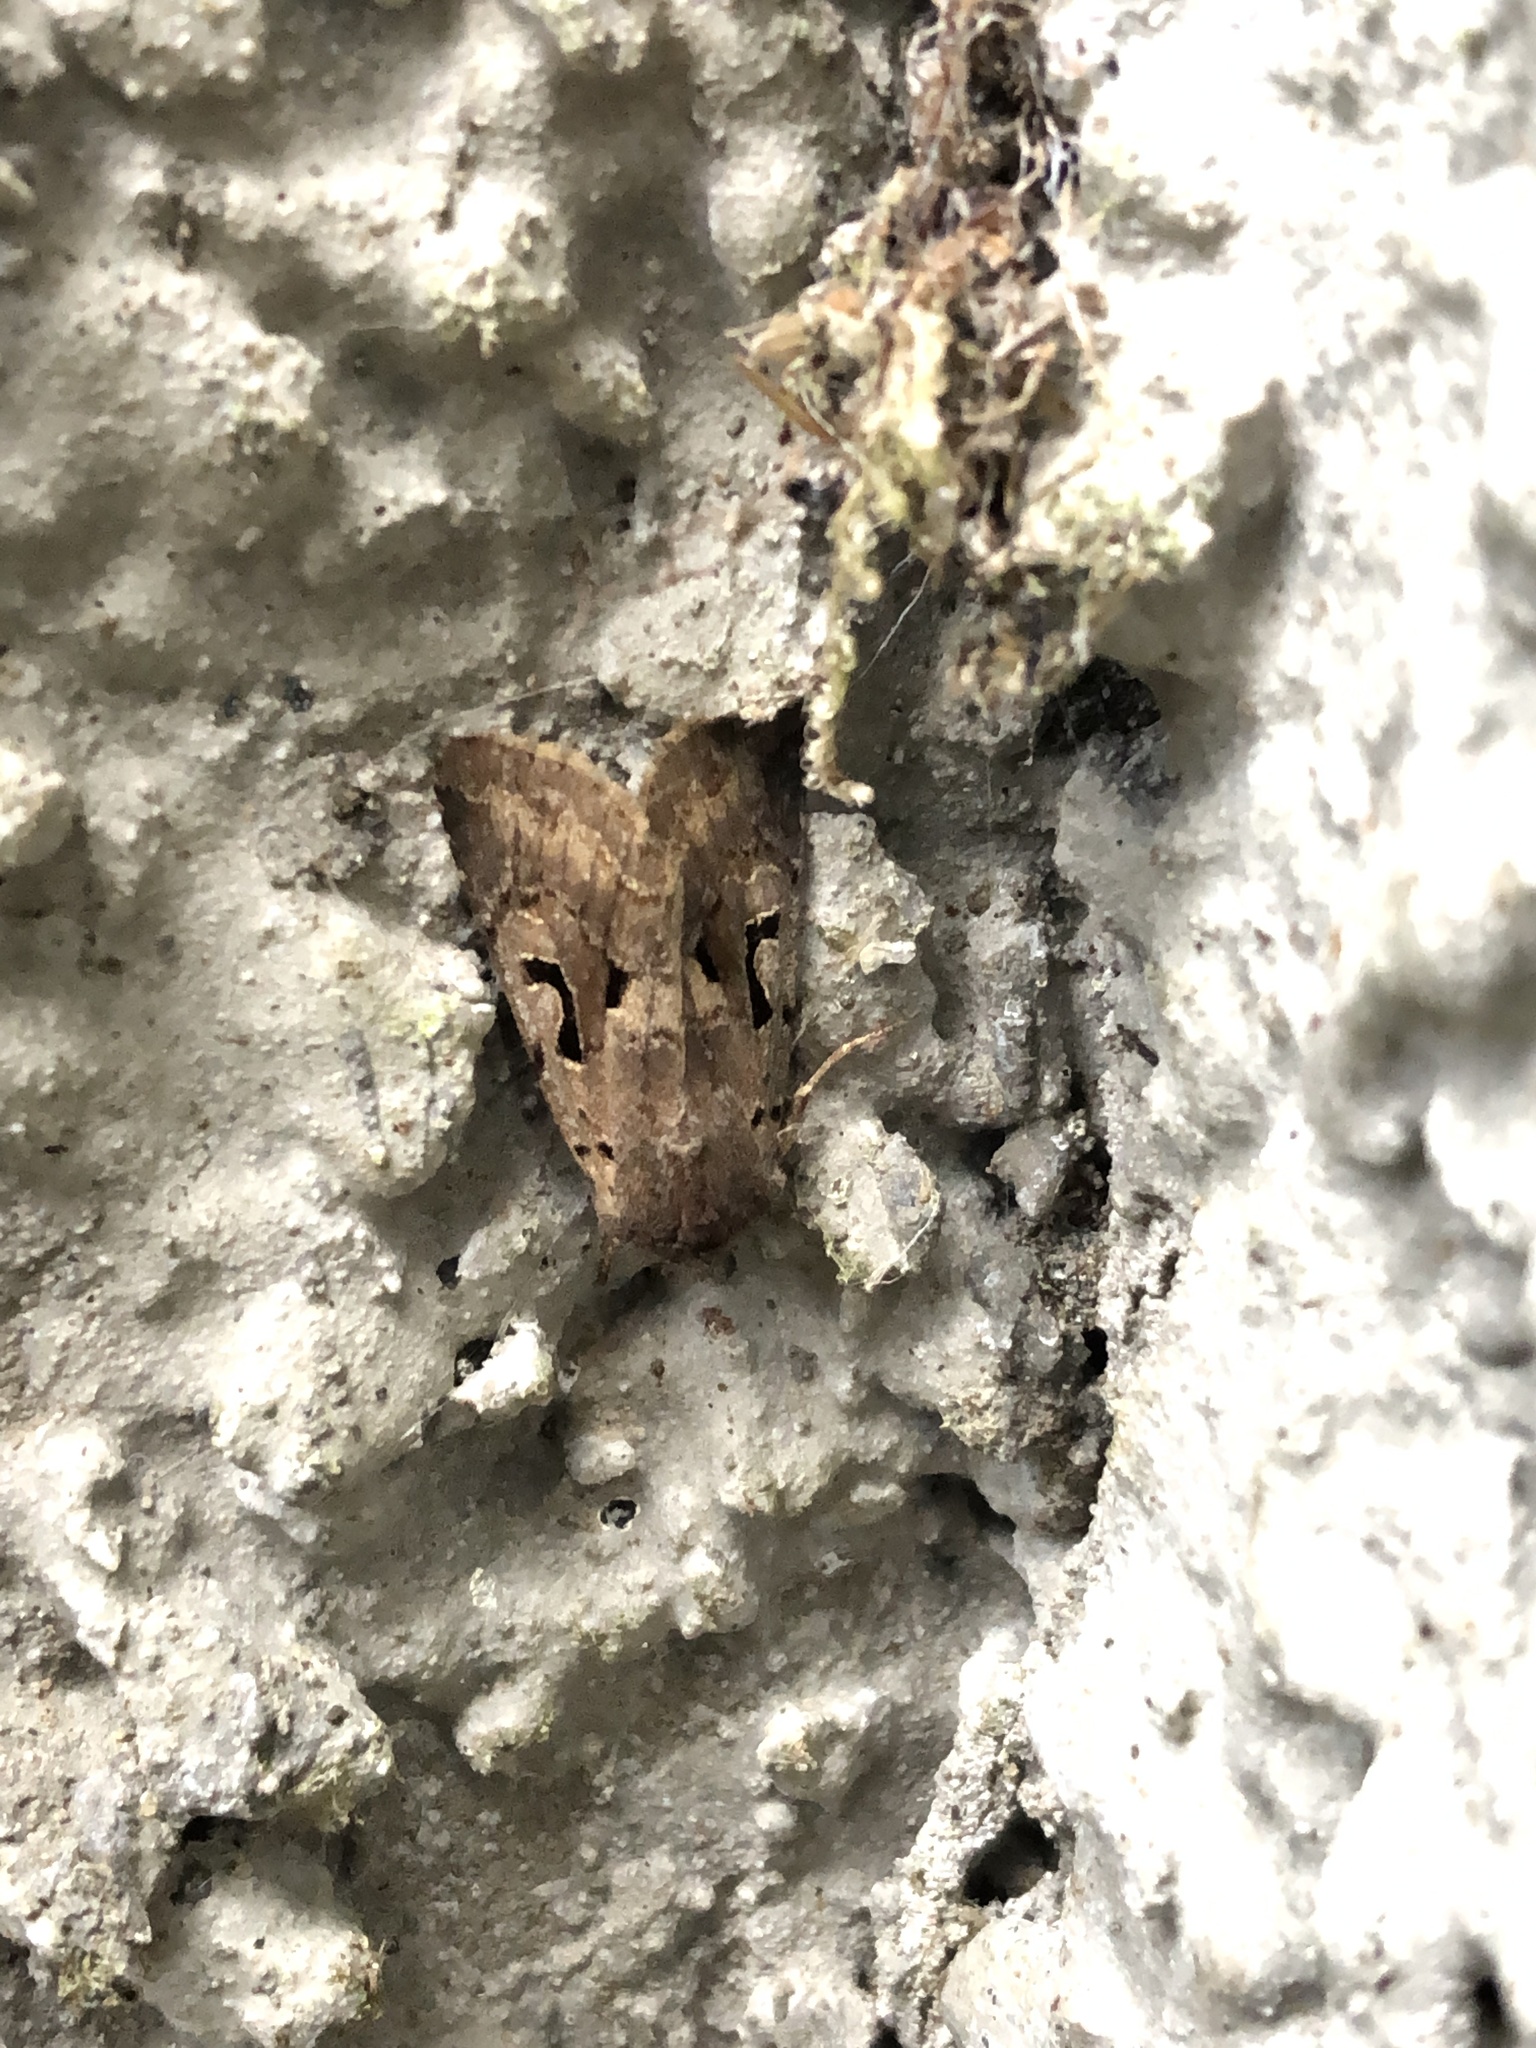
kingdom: Animalia
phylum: Arthropoda
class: Insecta
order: Lepidoptera
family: Noctuidae
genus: Orthosia
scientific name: Orthosia gothica
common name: Hebrew character
